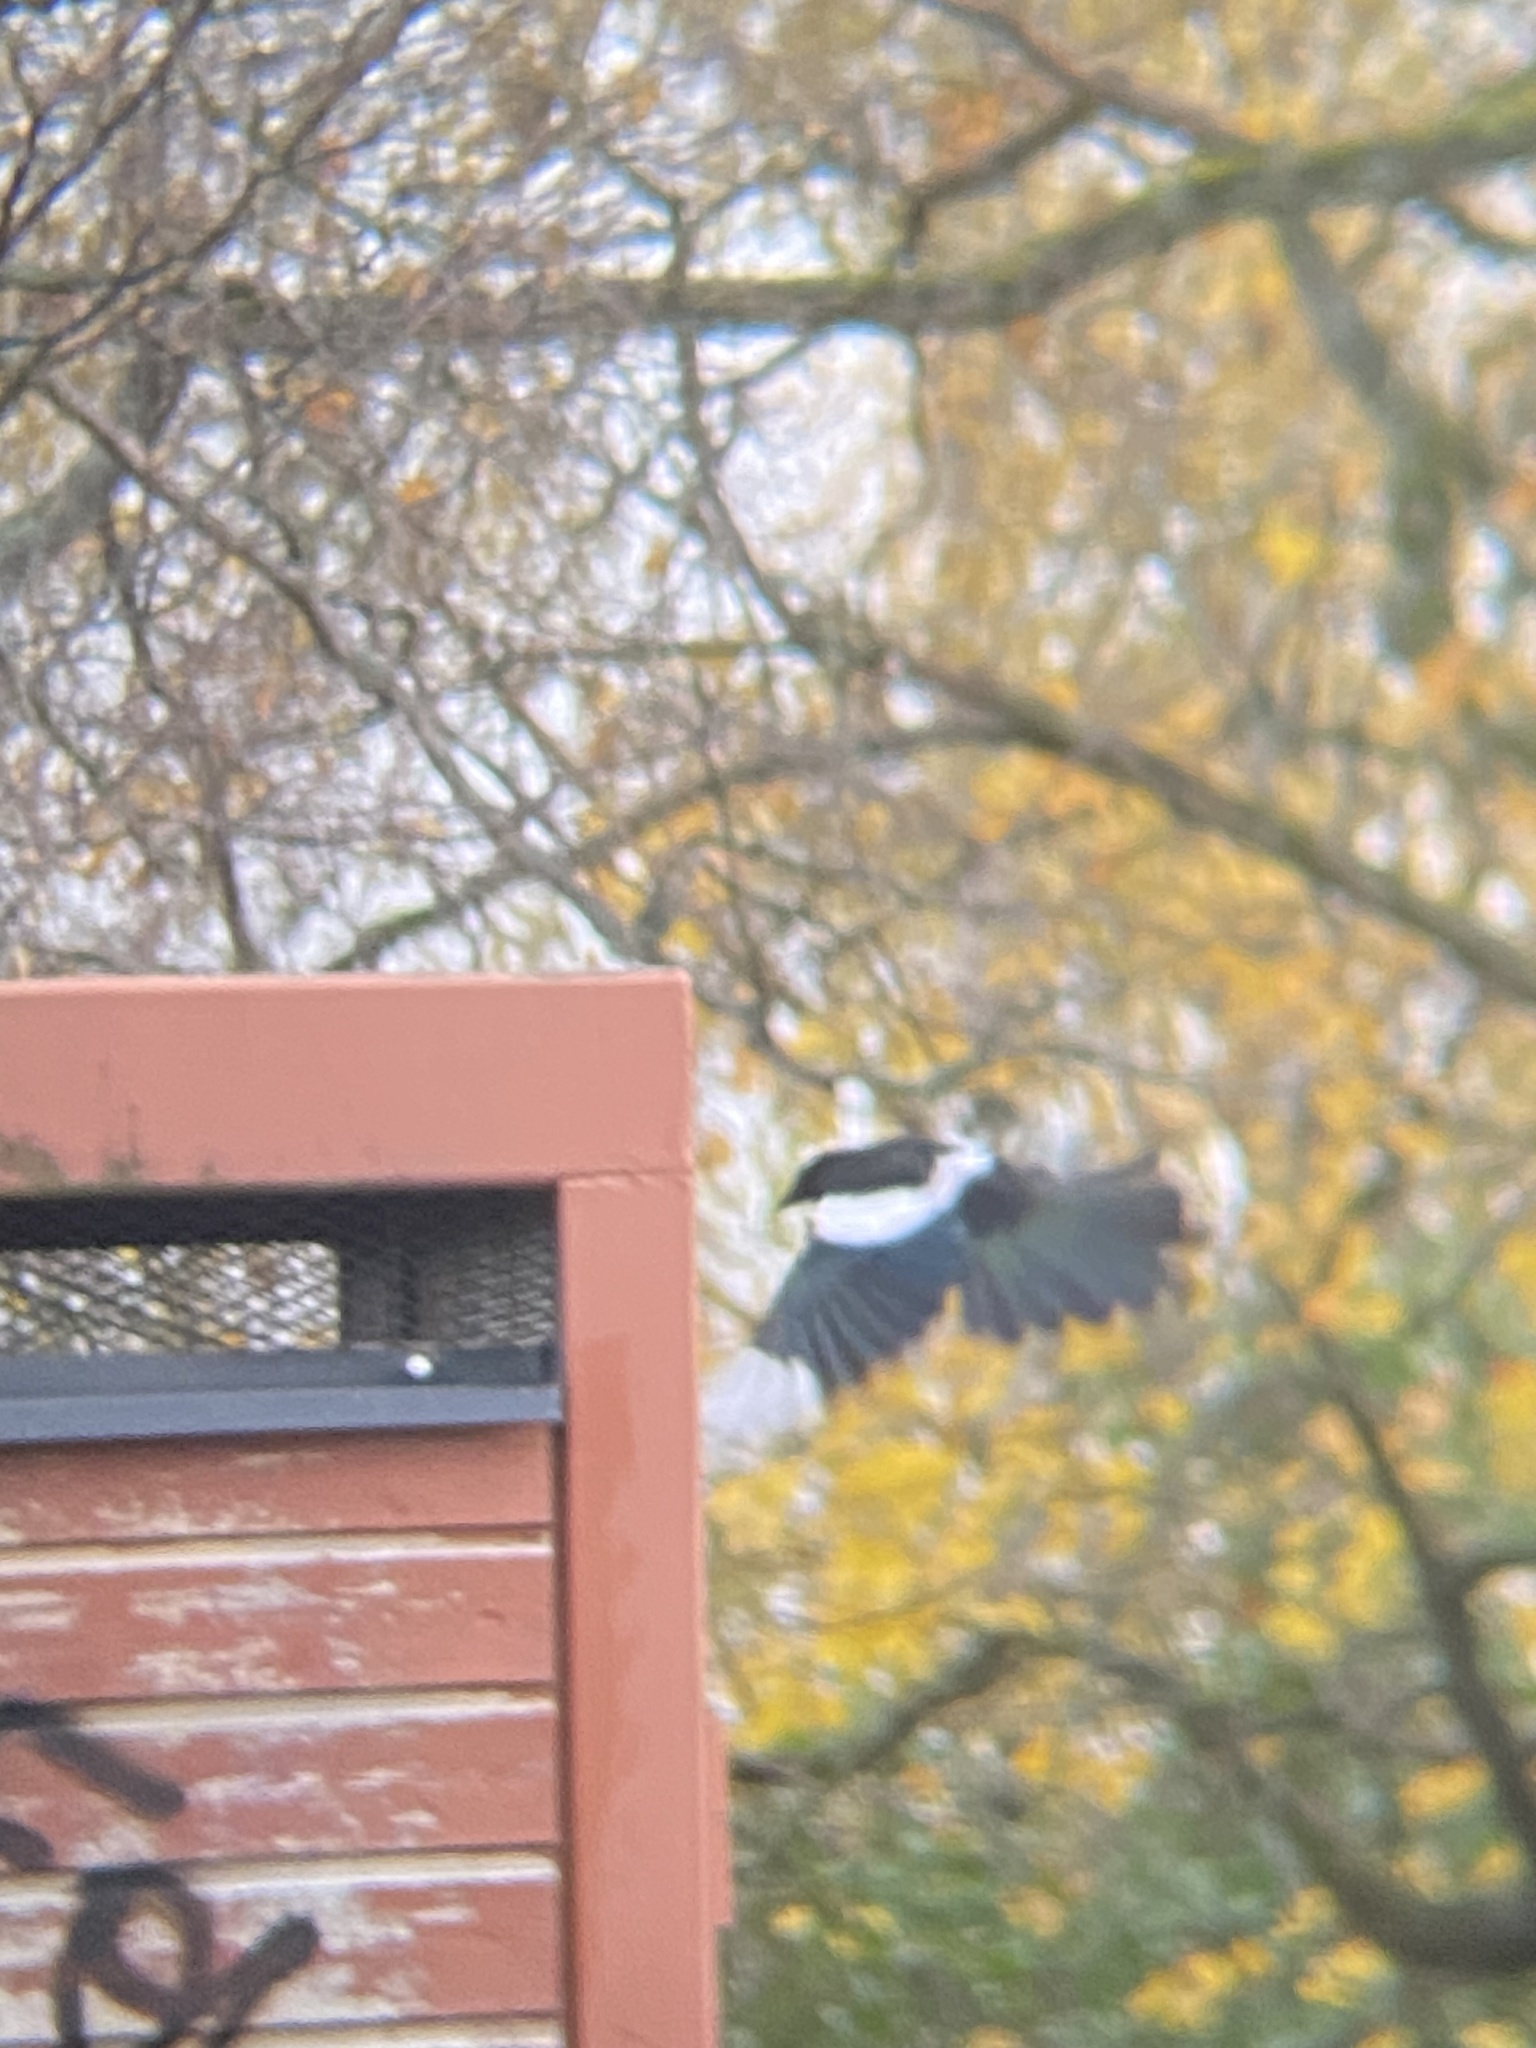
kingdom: Animalia
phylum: Chordata
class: Aves
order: Passeriformes
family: Corvidae
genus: Pica
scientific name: Pica pica
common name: Eurasian magpie
